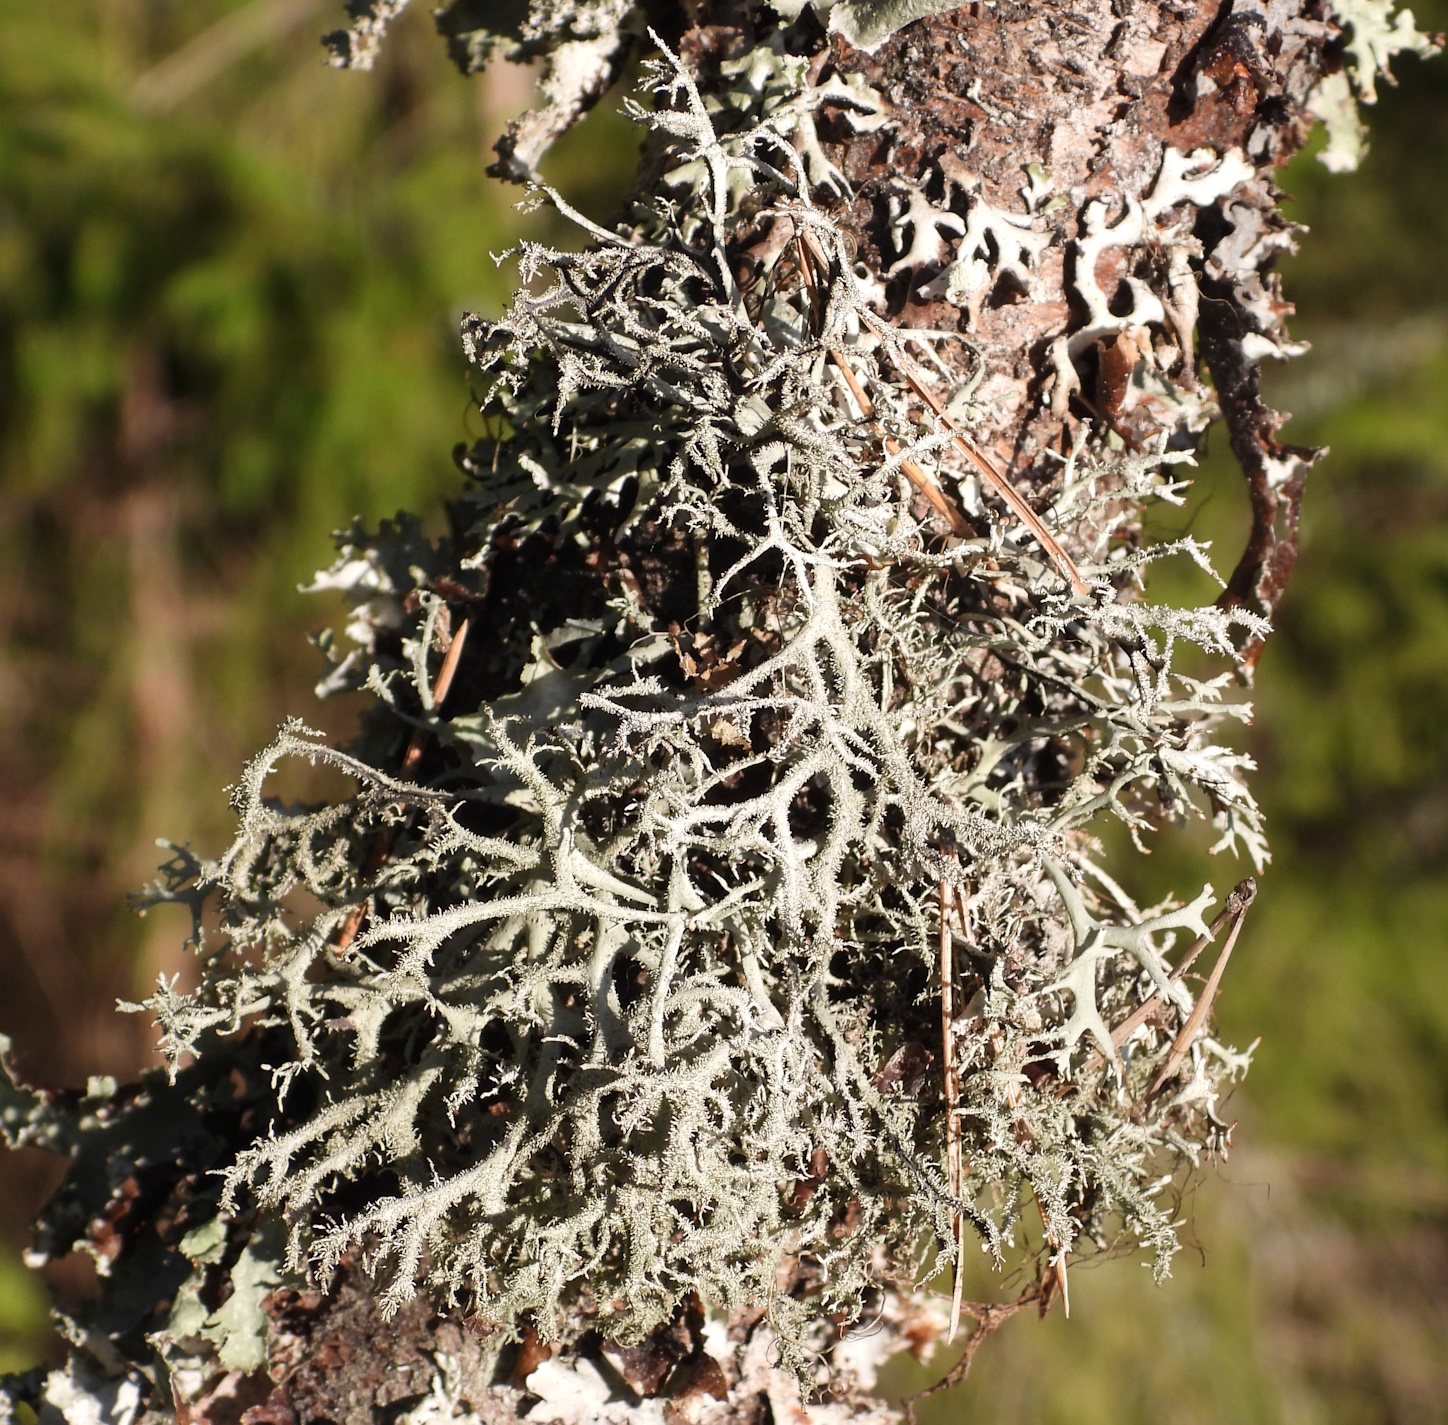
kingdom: Fungi
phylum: Ascomycota
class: Lecanoromycetes
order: Lecanorales
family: Parmeliaceae
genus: Pseudevernia
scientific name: Pseudevernia furfuracea
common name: Tree moss
